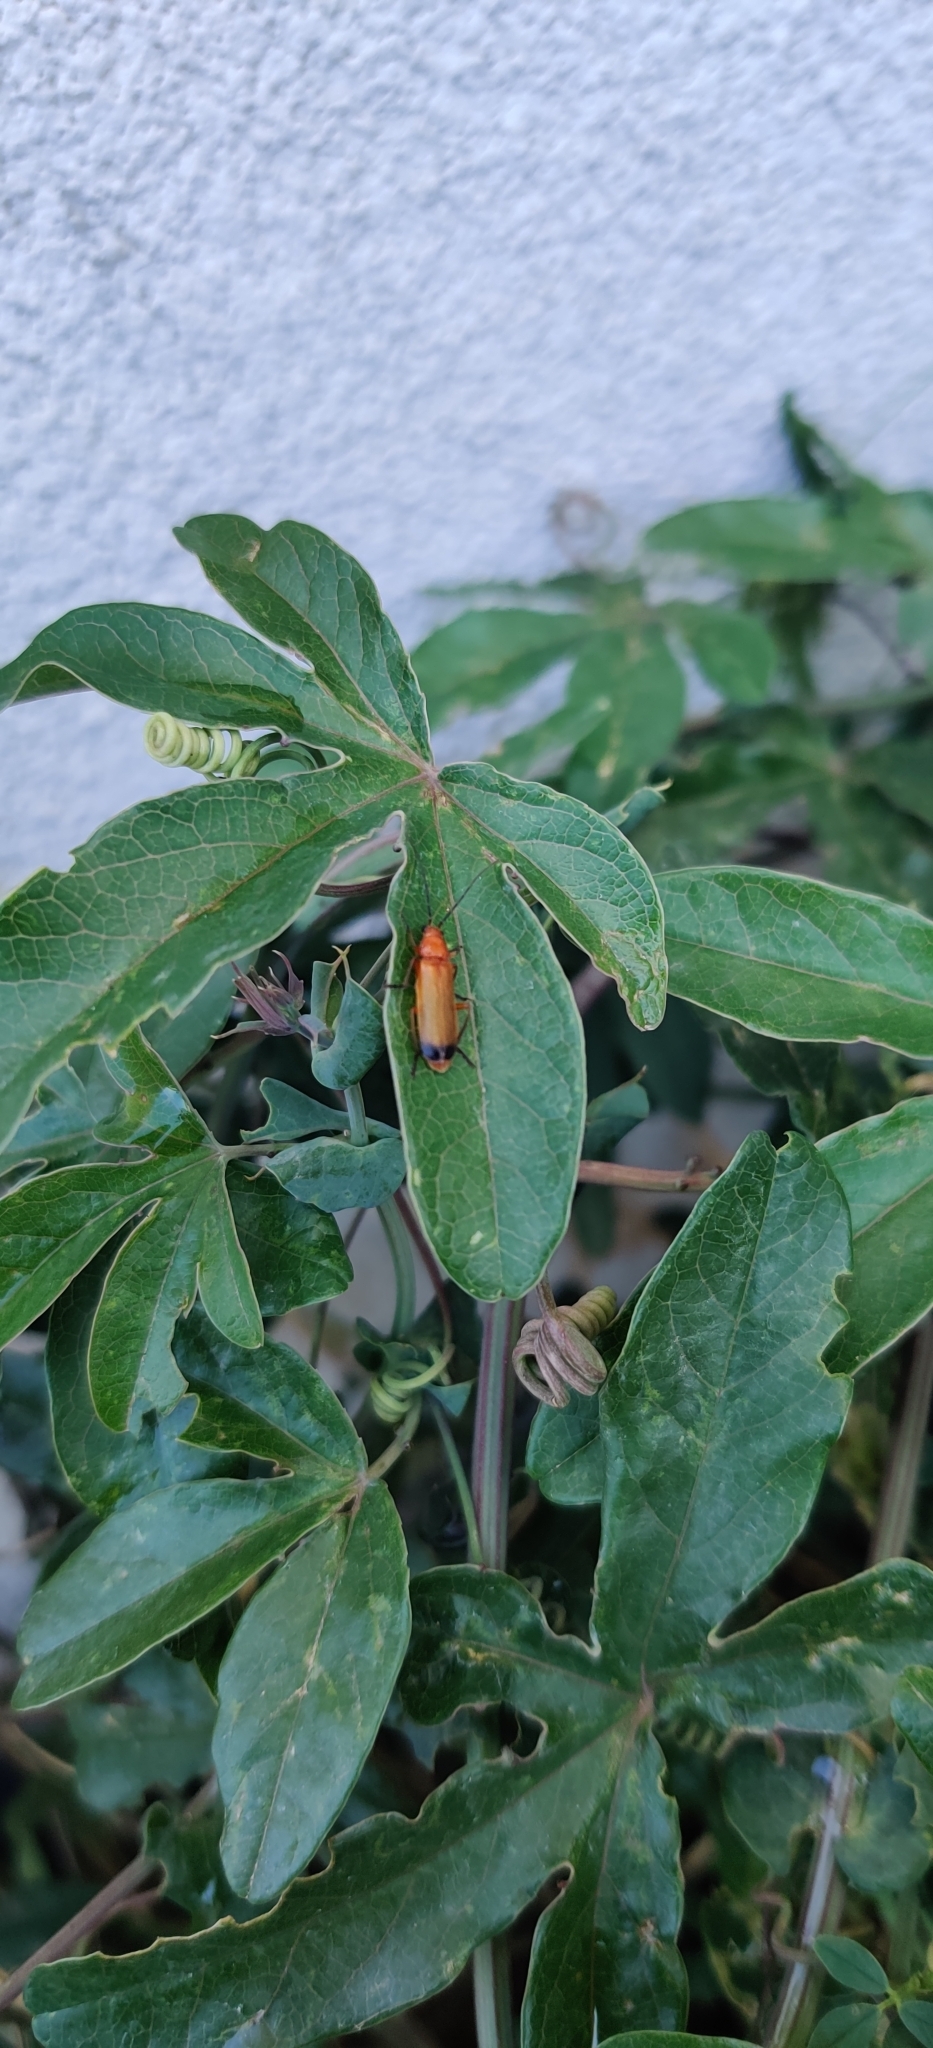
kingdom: Animalia
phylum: Arthropoda
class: Insecta
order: Coleoptera
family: Cantharidae
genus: Rhagonycha
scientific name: Rhagonycha fulva
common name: Common red soldier beetle
